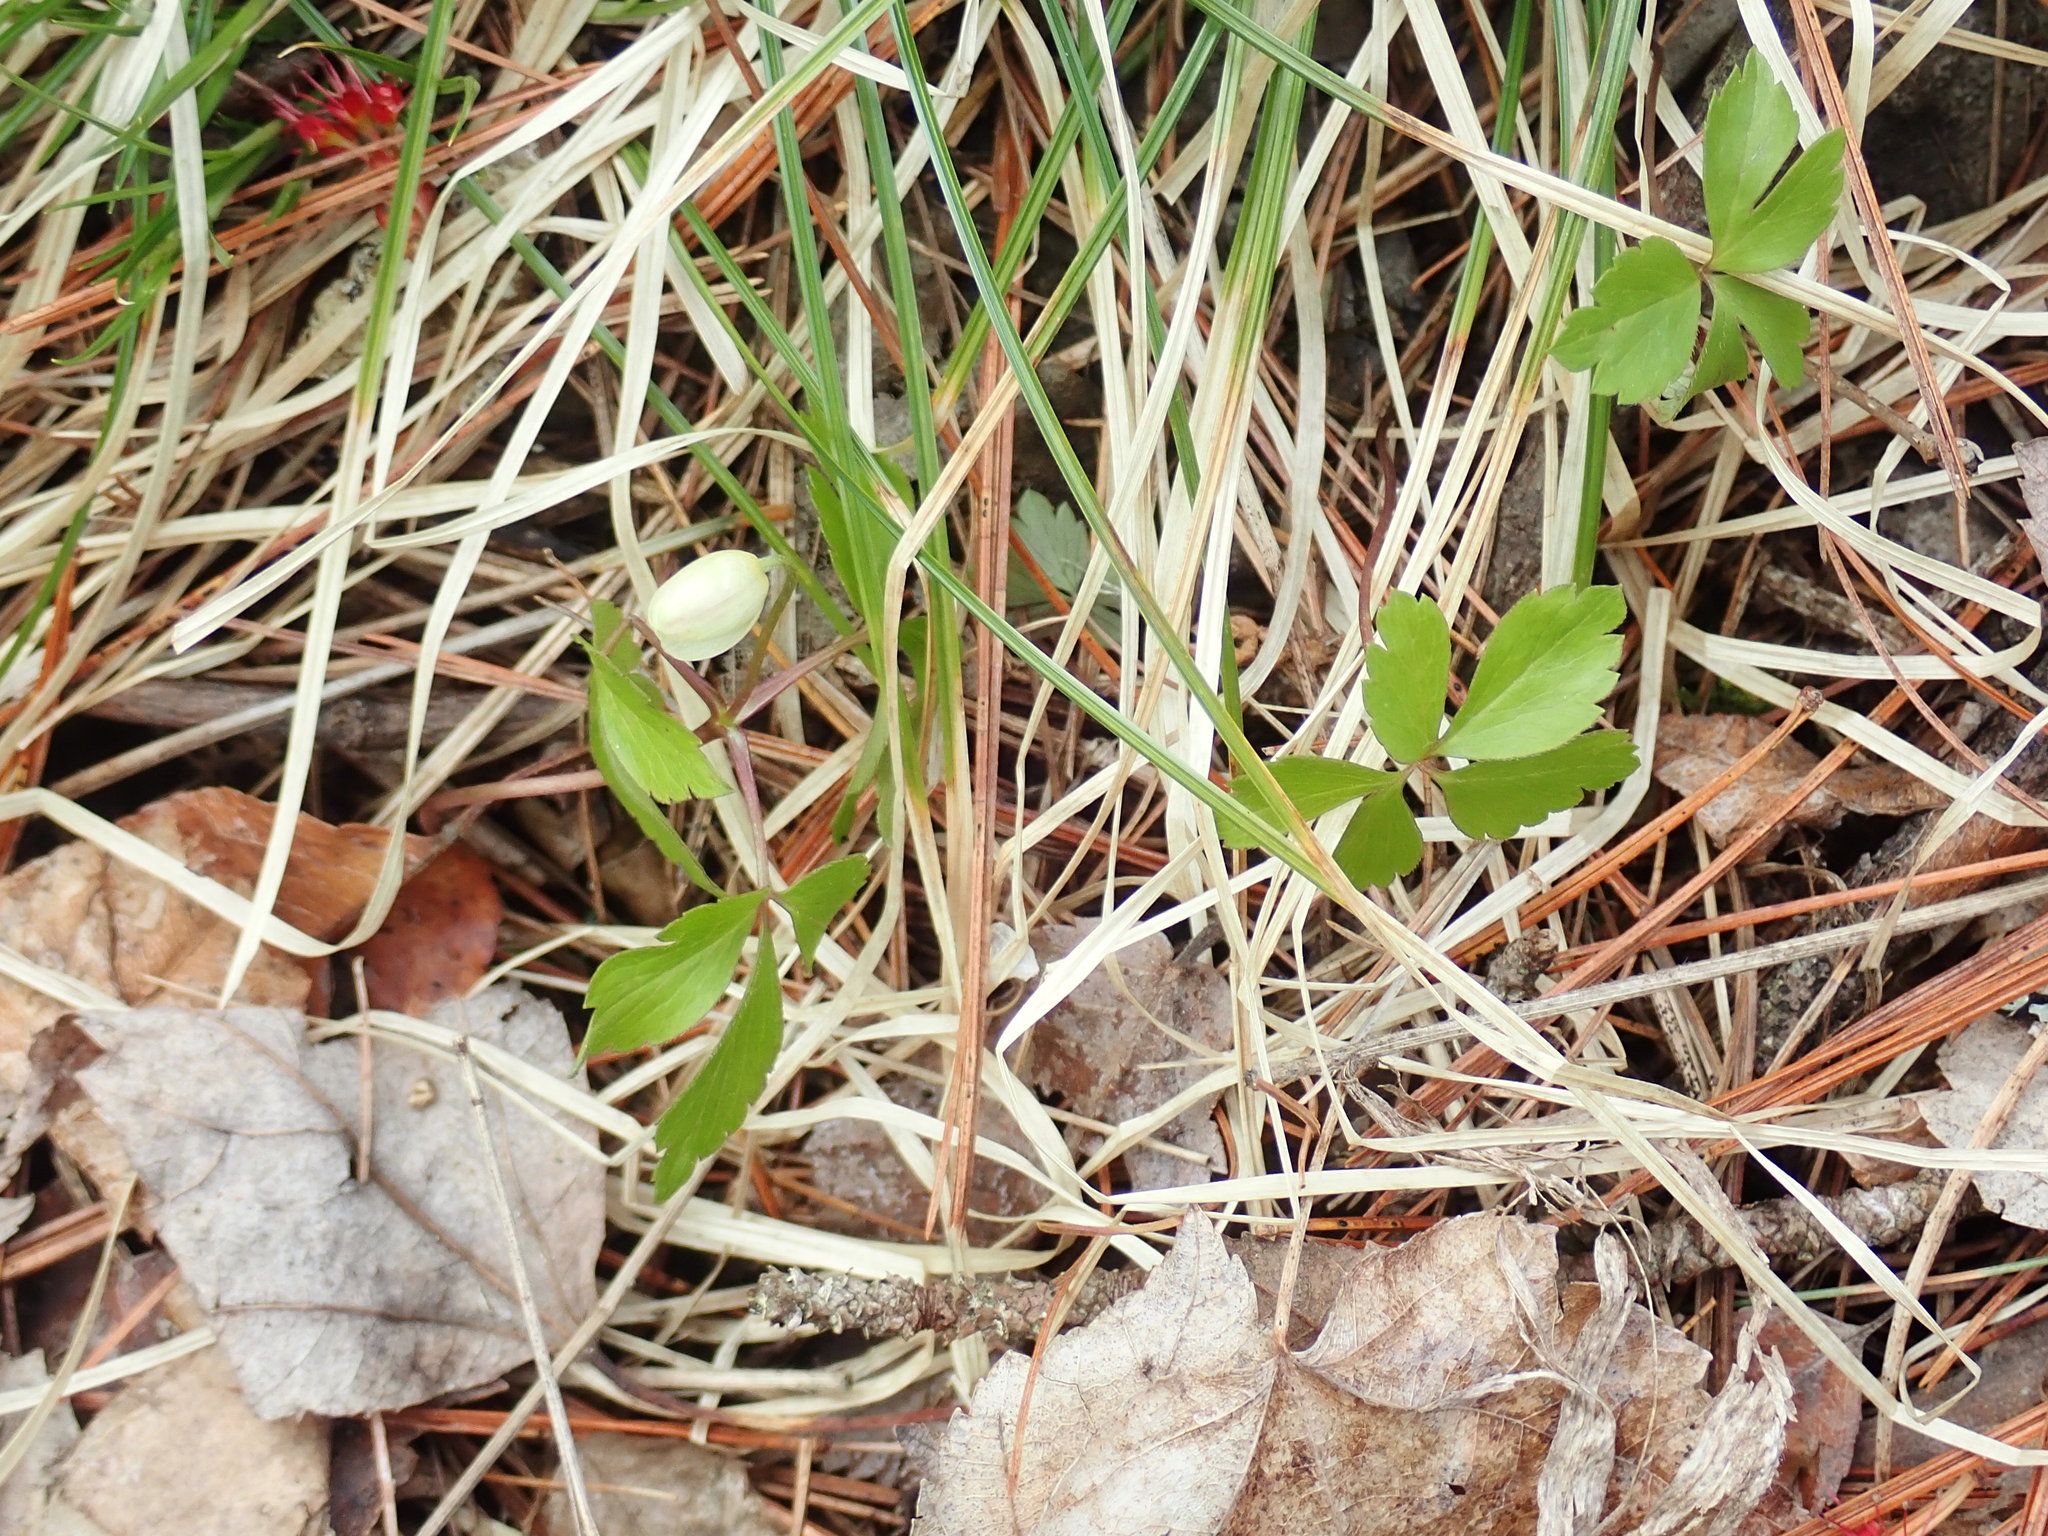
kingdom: Plantae
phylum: Tracheophyta
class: Magnoliopsida
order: Ranunculales
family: Ranunculaceae
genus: Anemone
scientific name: Anemone quinquefolia
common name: Wood anemone
